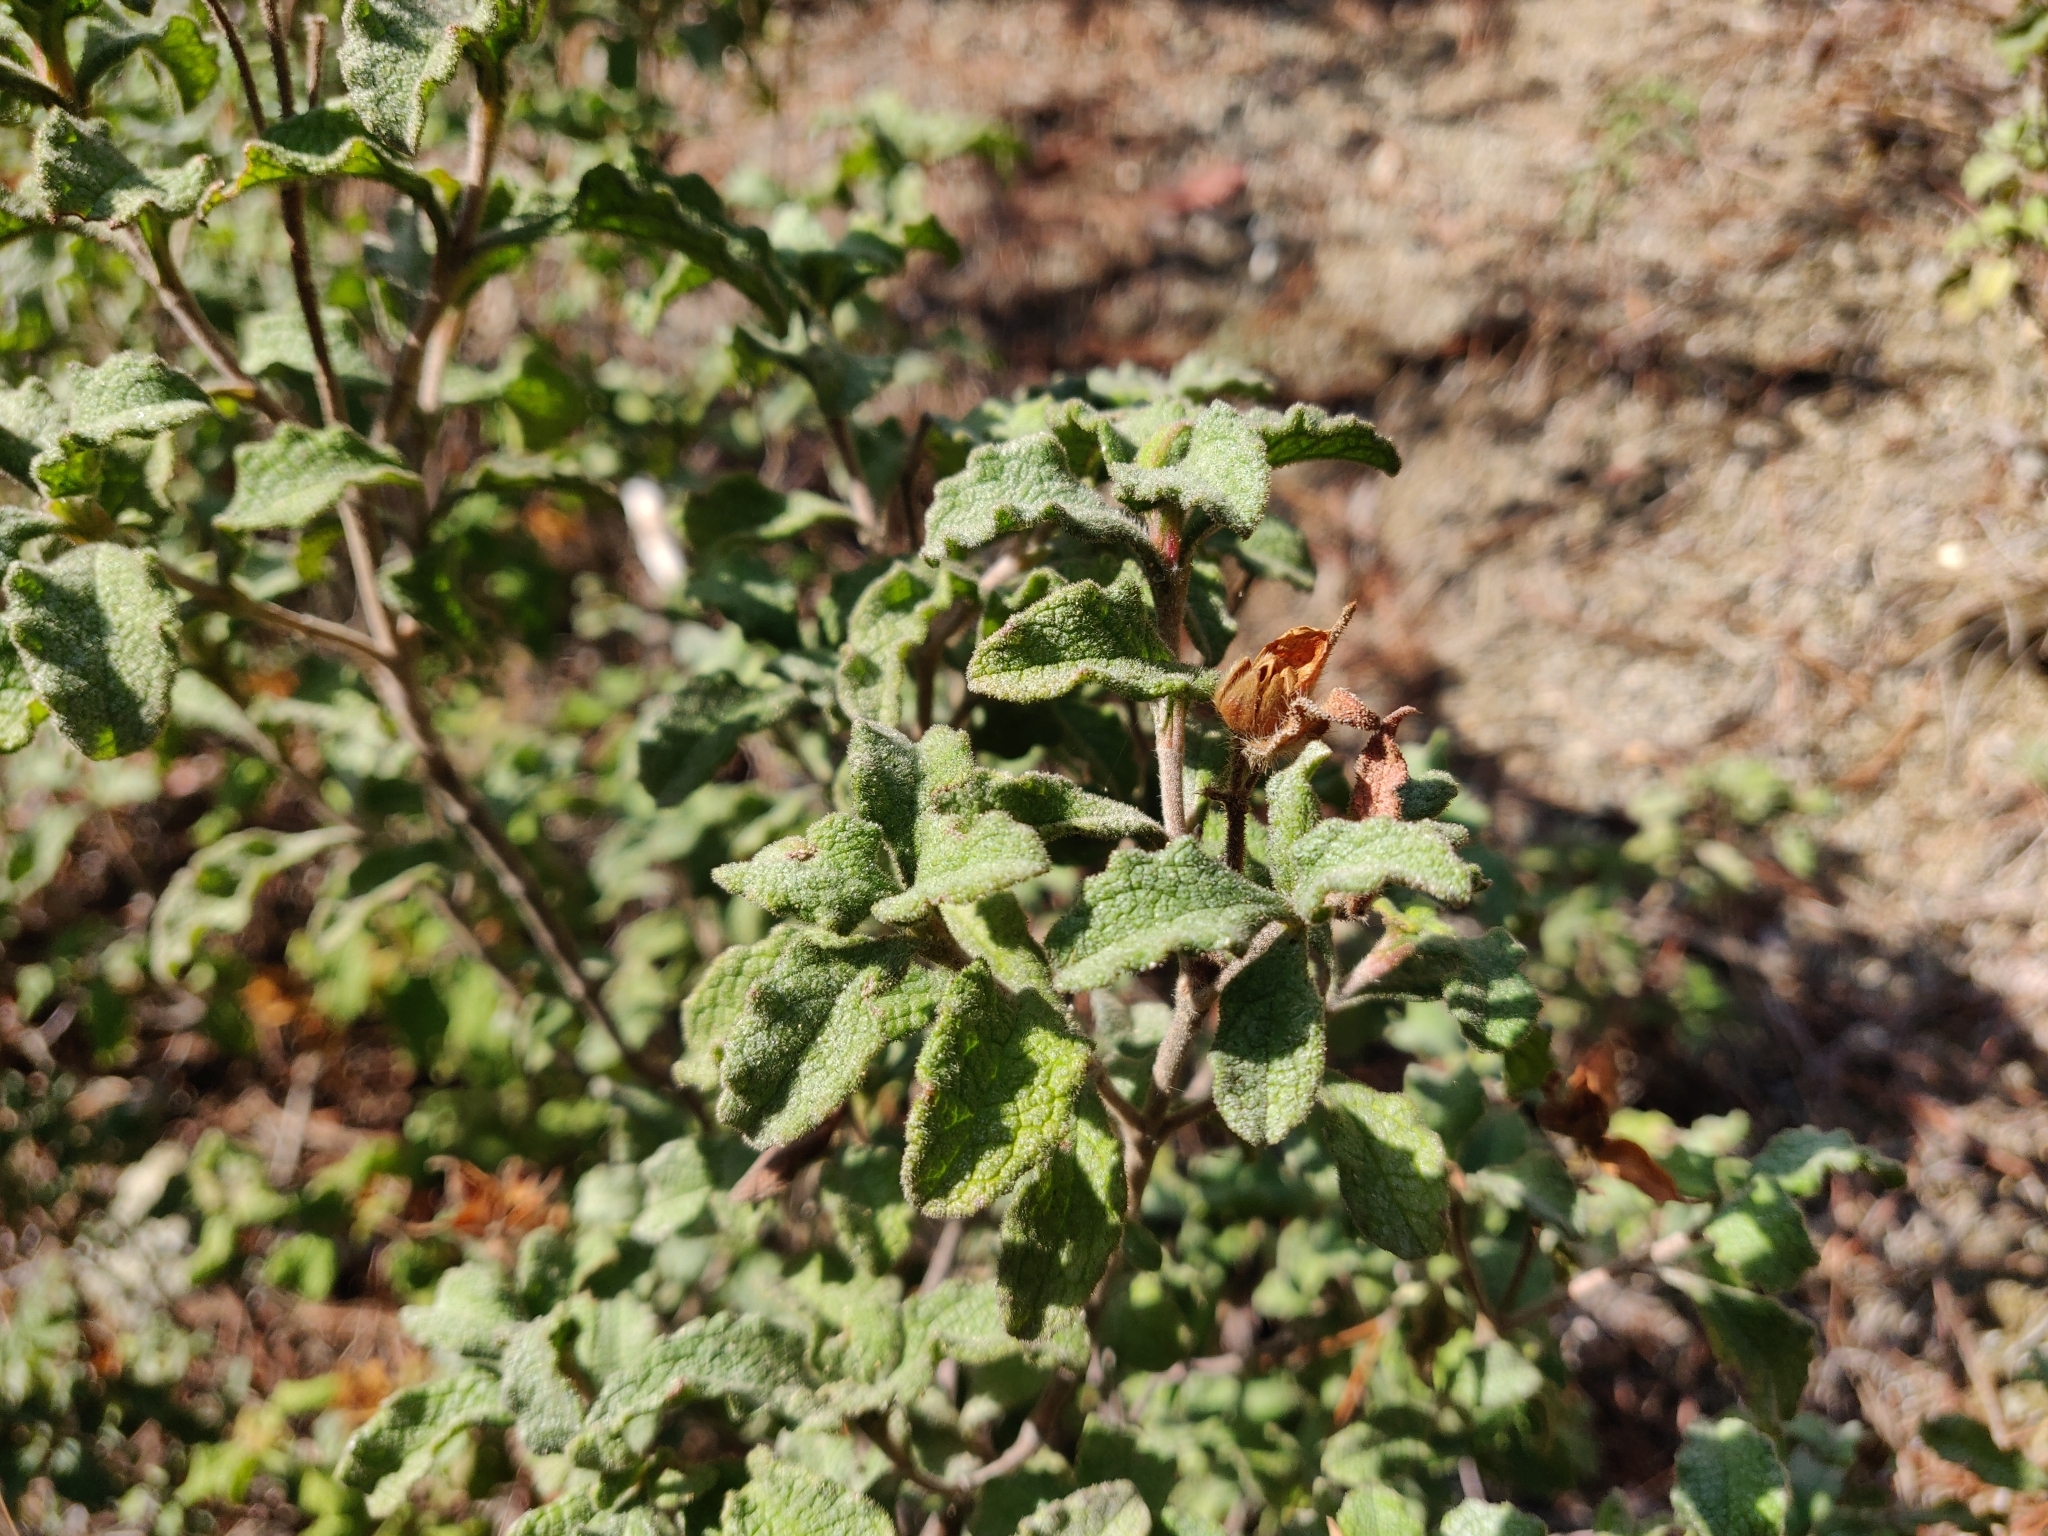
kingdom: Plantae
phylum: Tracheophyta
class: Magnoliopsida
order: Malvales
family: Cistaceae
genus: Cistus
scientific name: Cistus creticus
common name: Cretan rockrose
